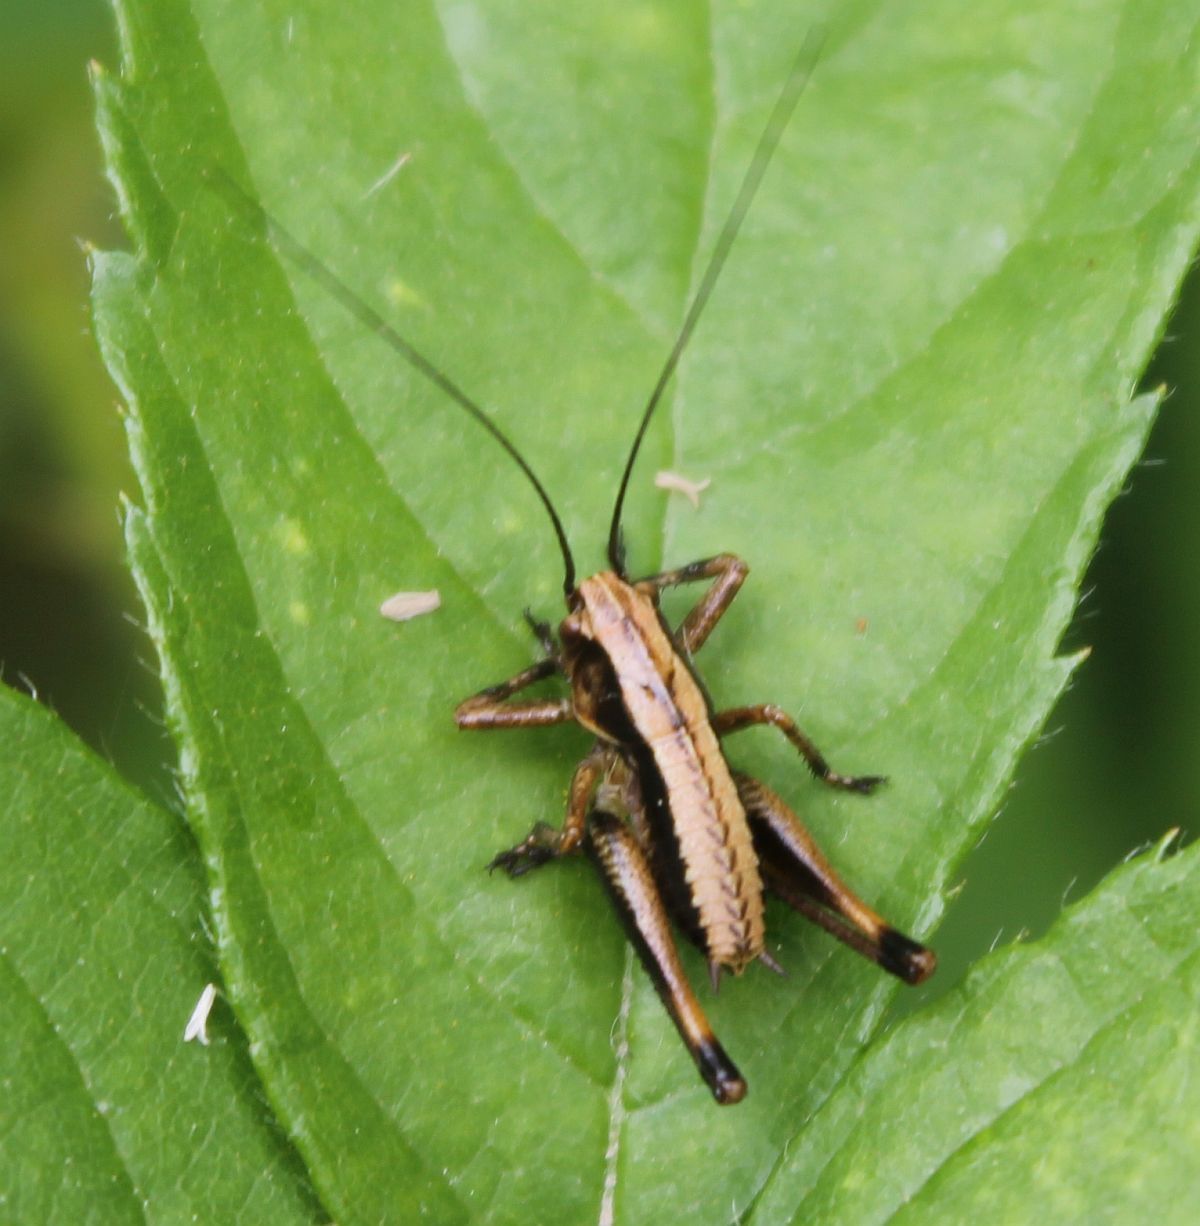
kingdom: Animalia
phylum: Arthropoda
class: Insecta
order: Orthoptera
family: Tettigoniidae
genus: Pholidoptera
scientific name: Pholidoptera griseoaptera
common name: Dark bush-cricket
